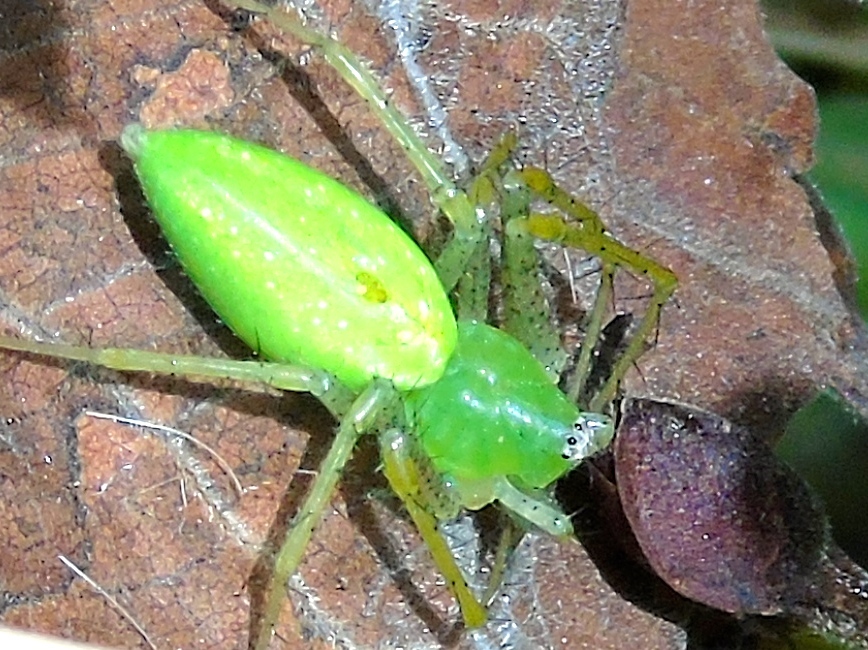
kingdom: Animalia
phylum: Arthropoda
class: Arachnida
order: Araneae
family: Oxyopidae
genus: Peucetia
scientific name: Peucetia
